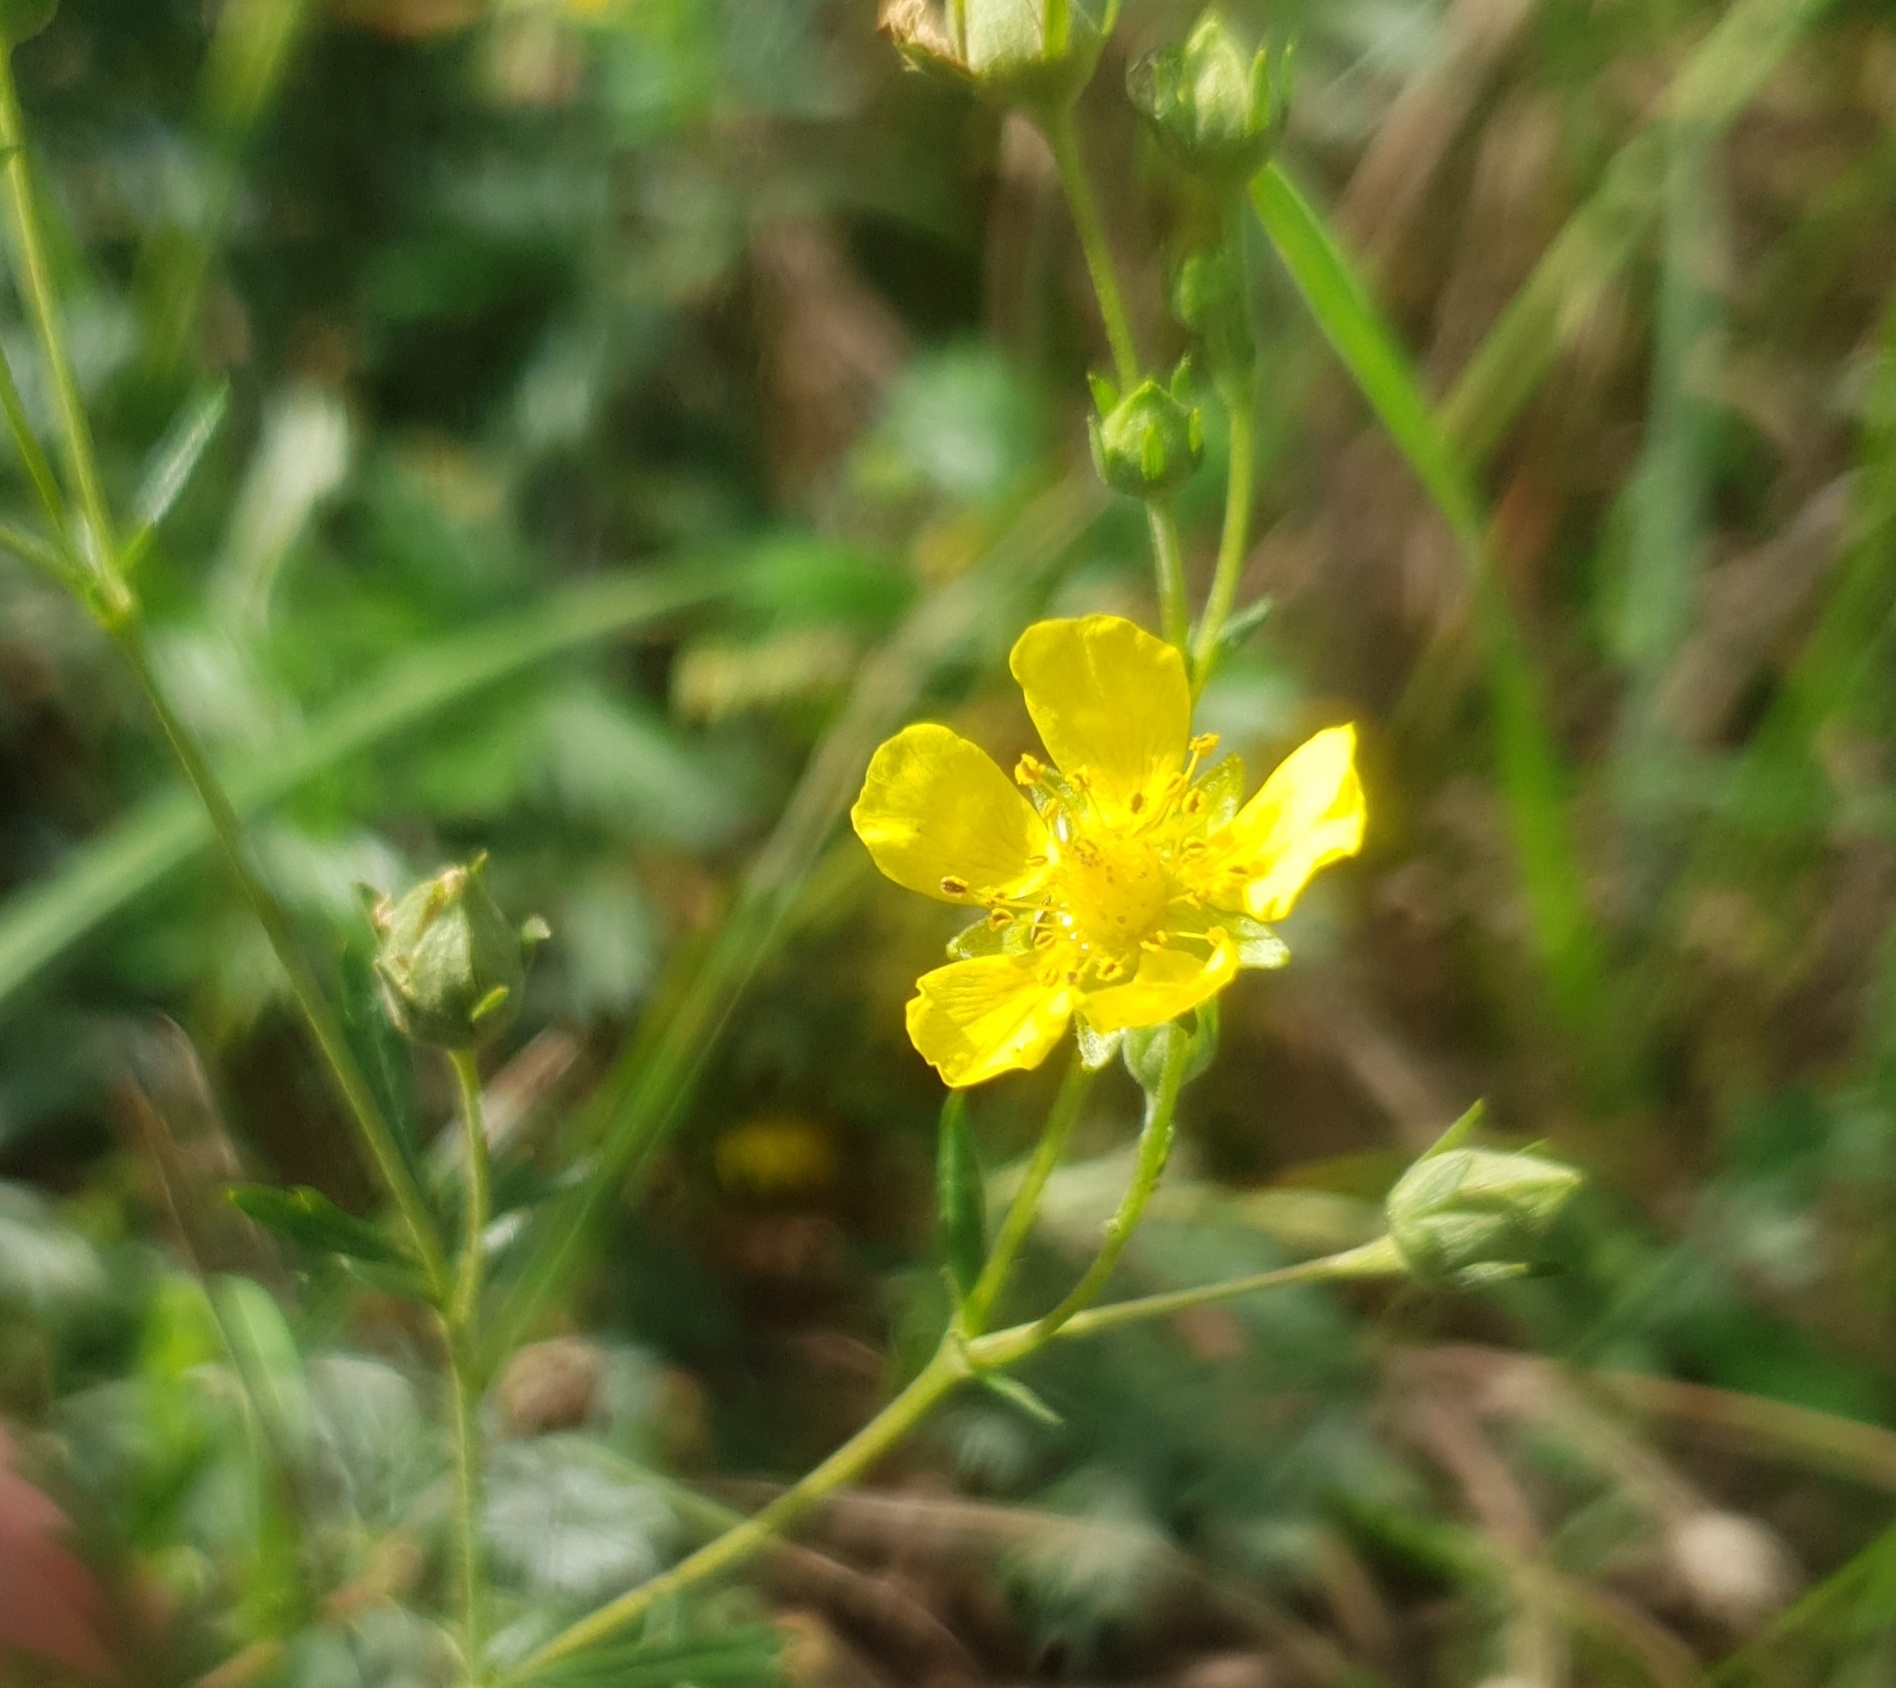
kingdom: Plantae
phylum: Tracheophyta
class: Magnoliopsida
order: Rosales
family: Rosaceae
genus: Potentilla
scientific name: Potentilla argentea
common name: Hoary cinquefoil
